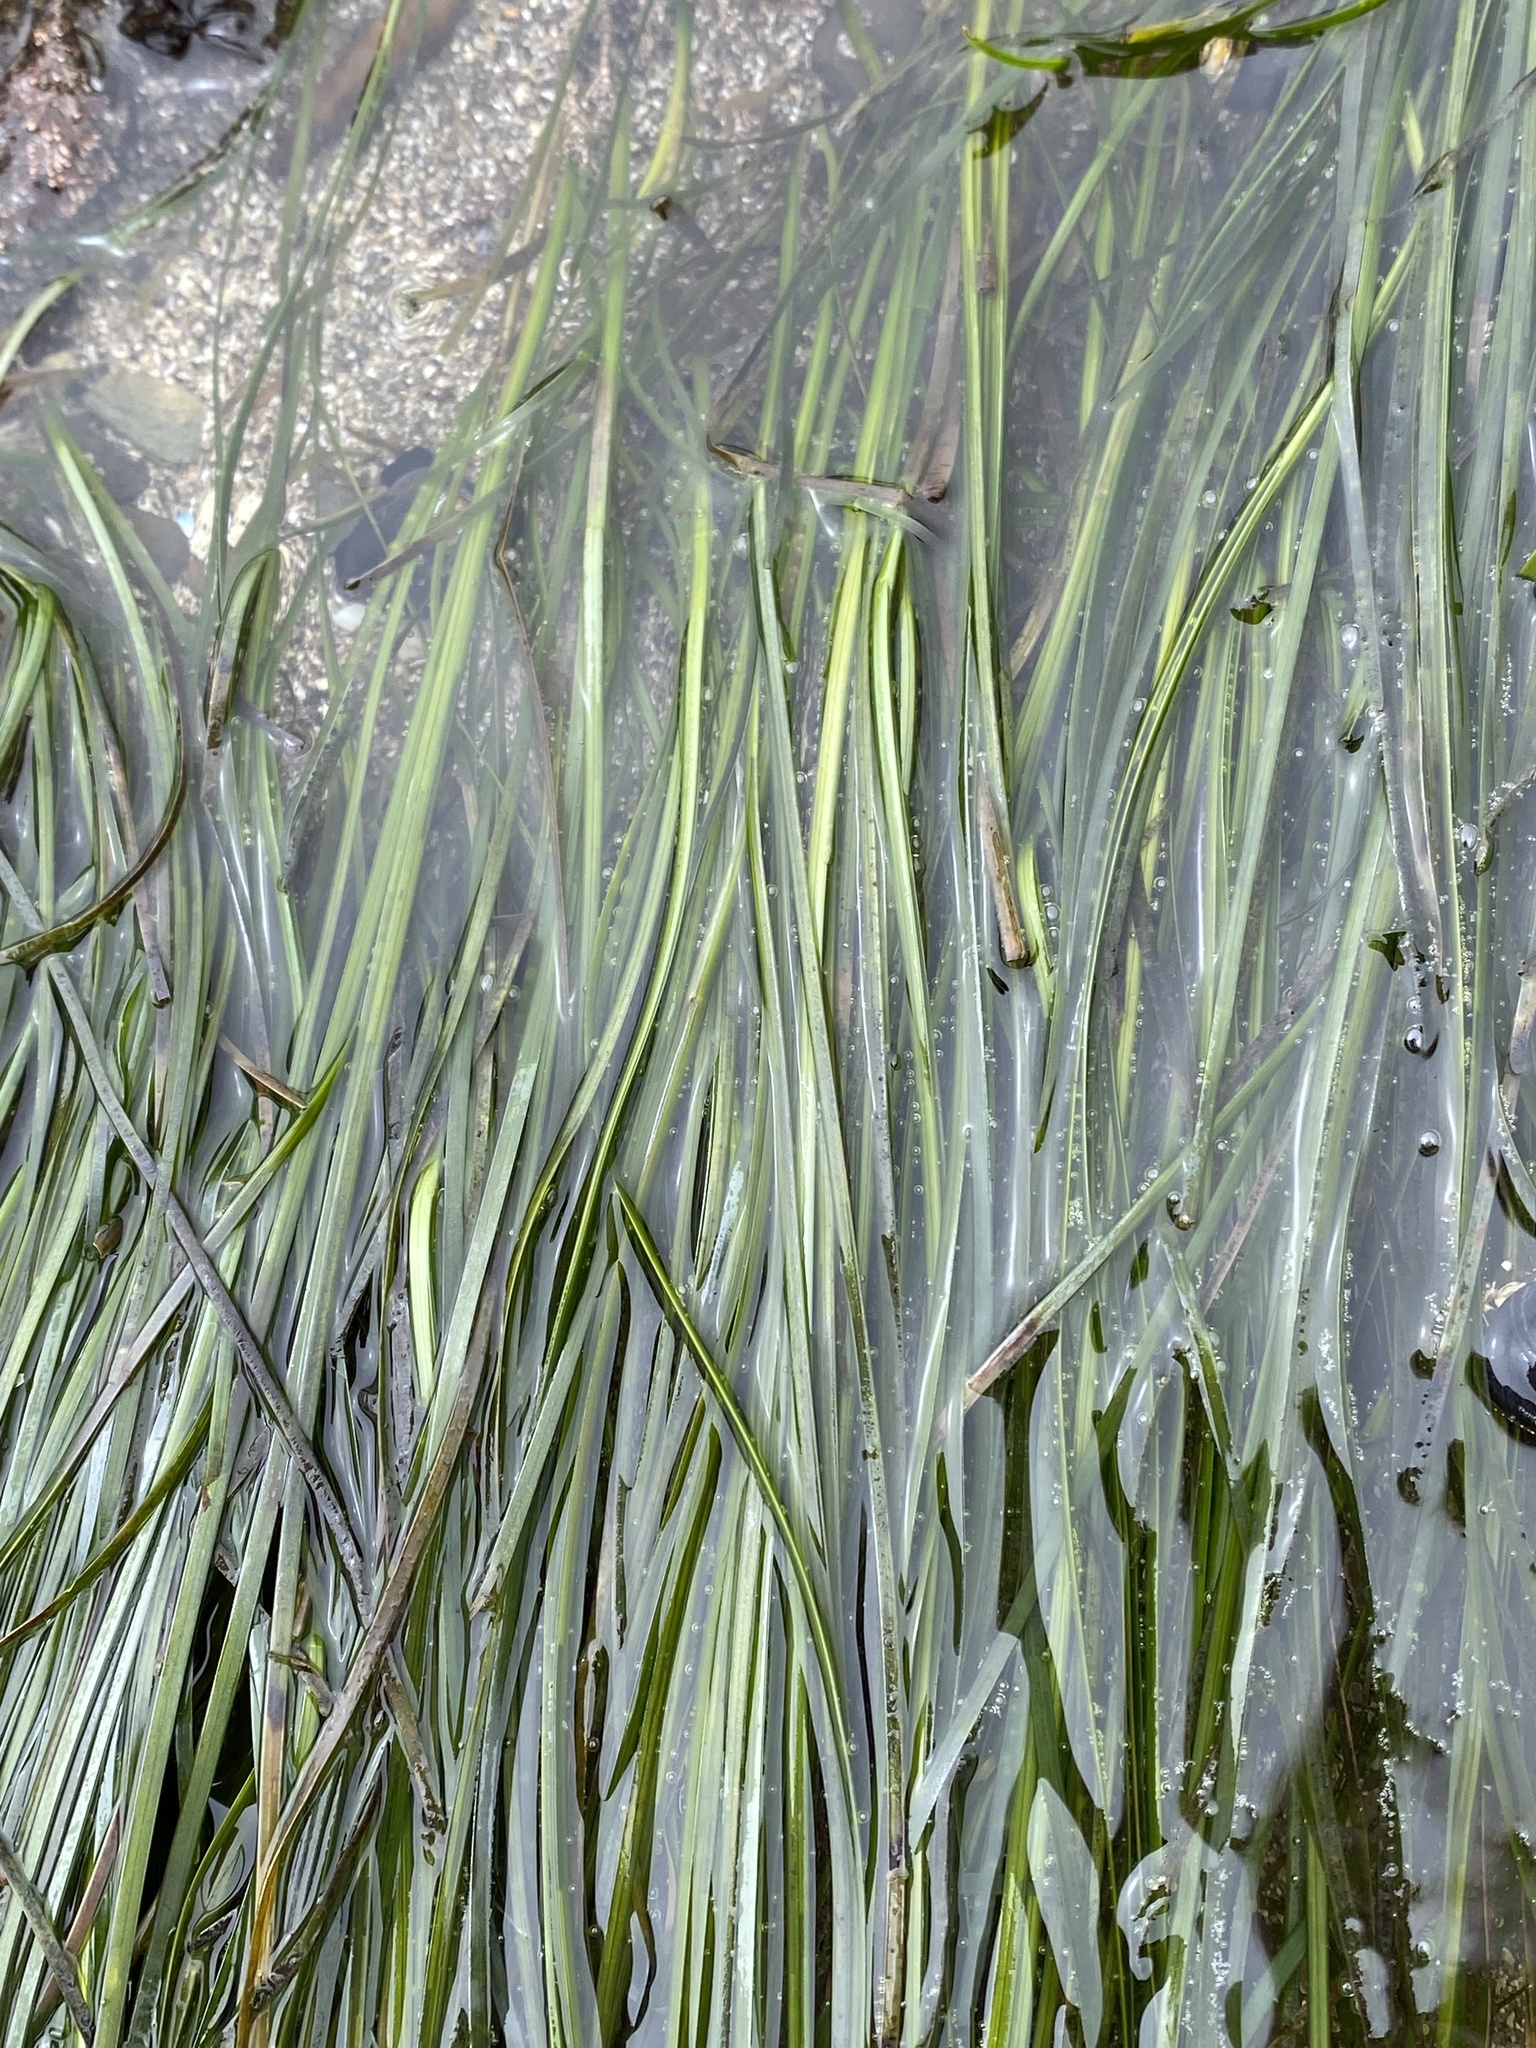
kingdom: Plantae
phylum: Tracheophyta
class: Liliopsida
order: Alismatales
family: Zosteraceae
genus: Phyllospadix
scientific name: Phyllospadix torreyi
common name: Surfgrass
